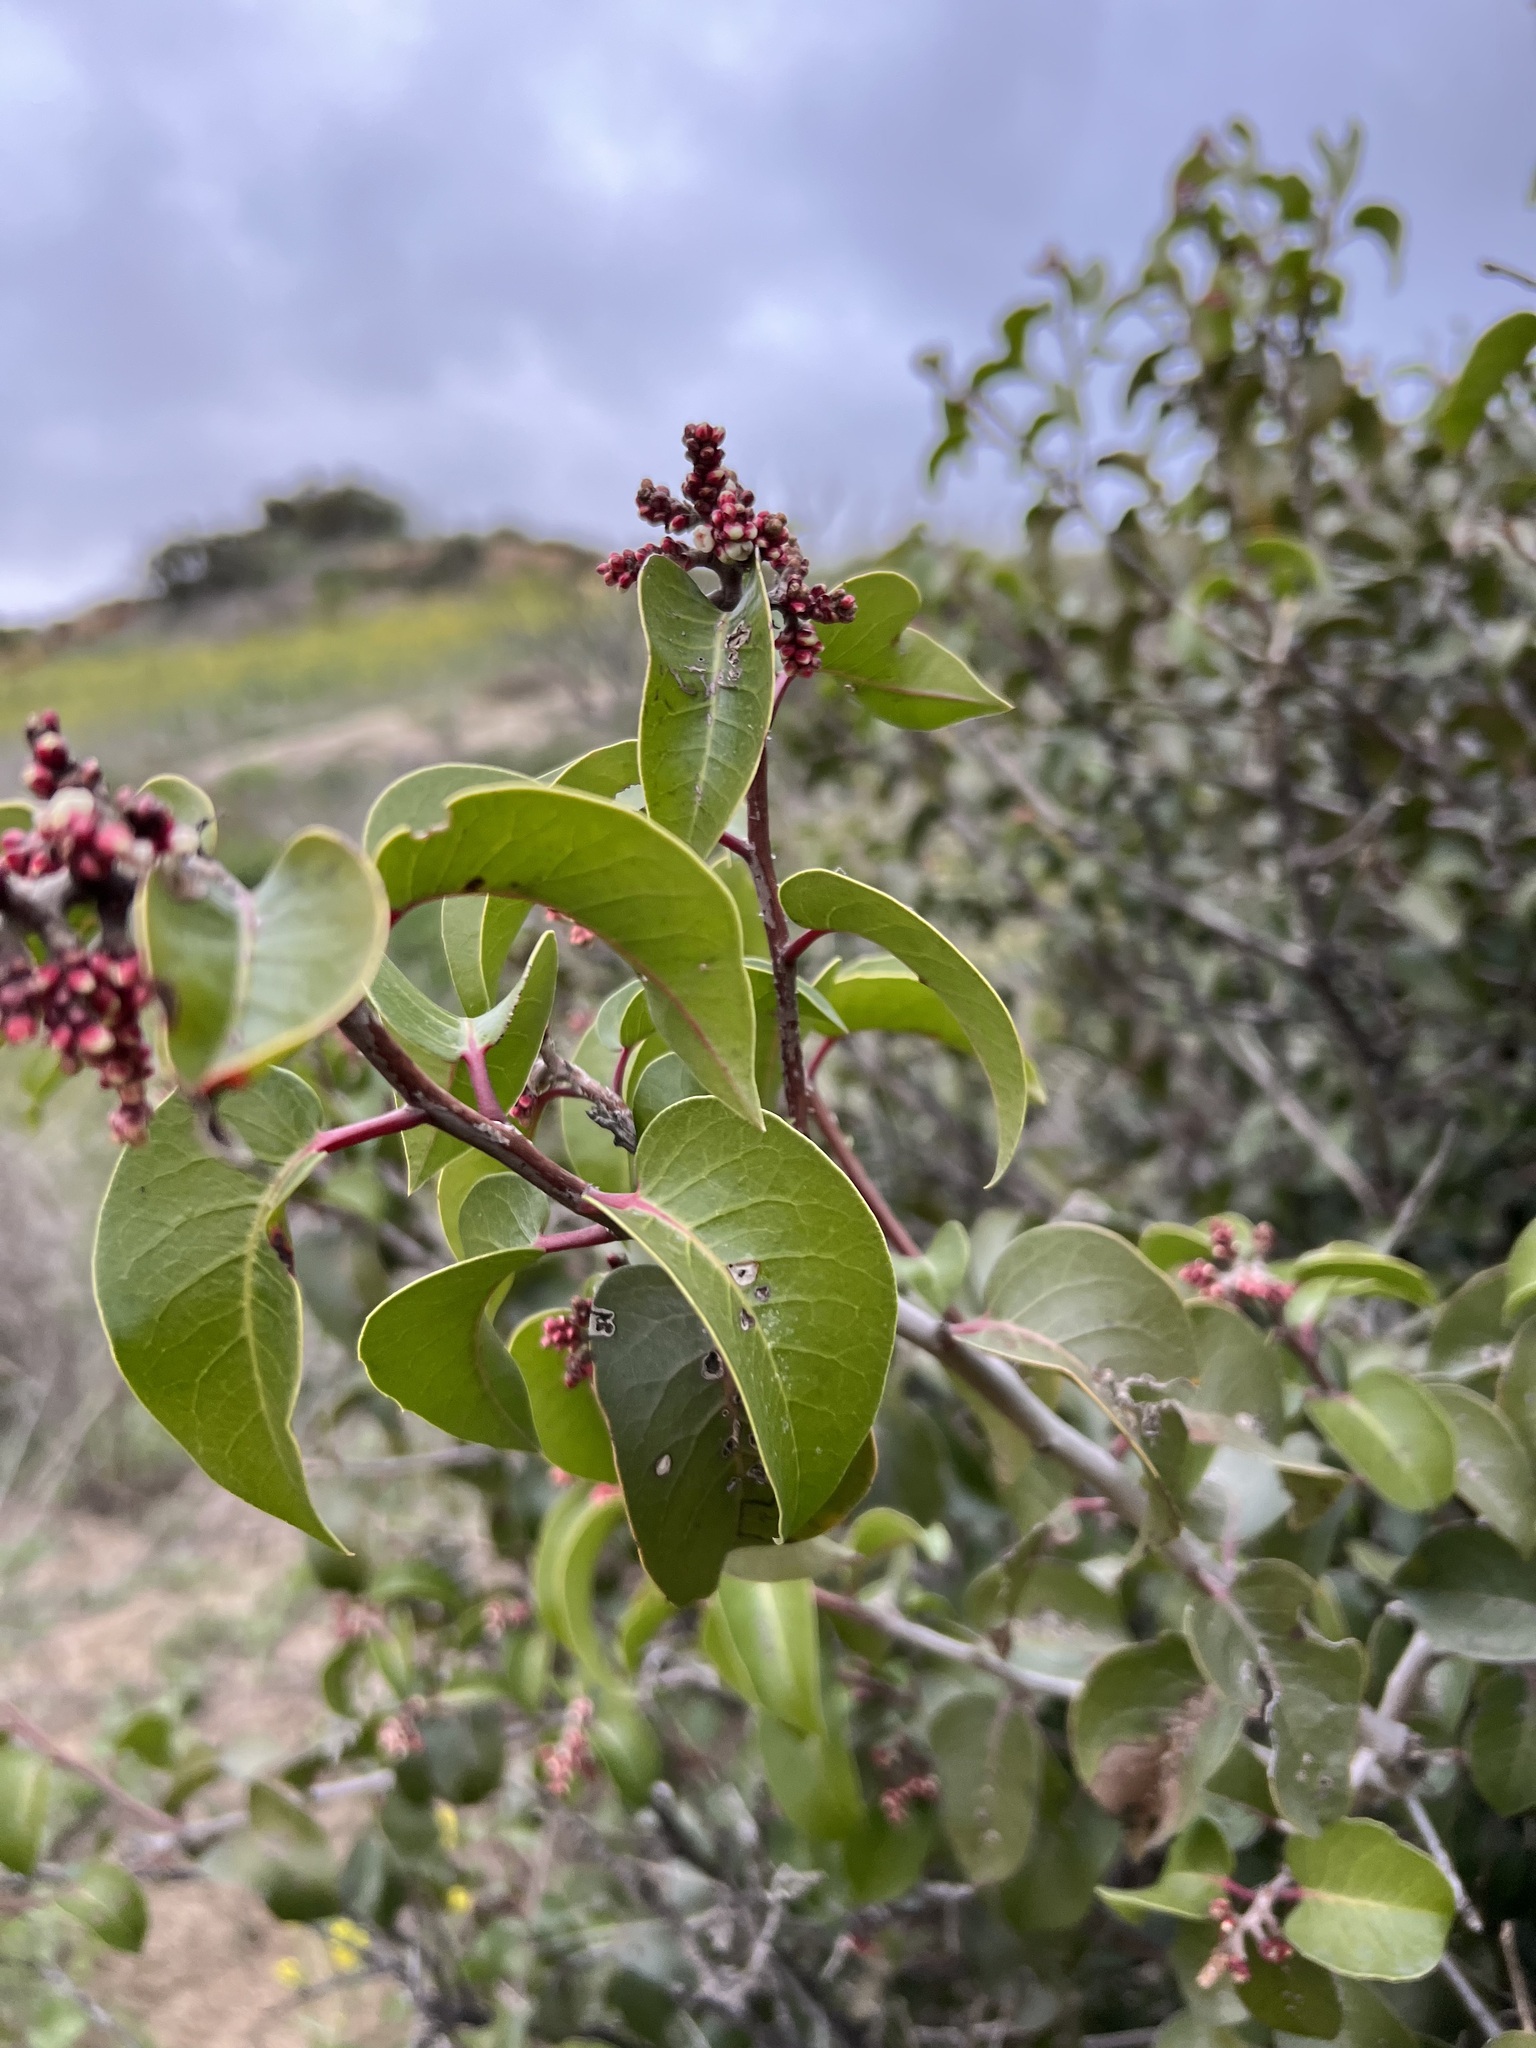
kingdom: Plantae
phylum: Tracheophyta
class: Magnoliopsida
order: Sapindales
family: Anacardiaceae
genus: Rhus
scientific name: Rhus ovata
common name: Sugar sumac
